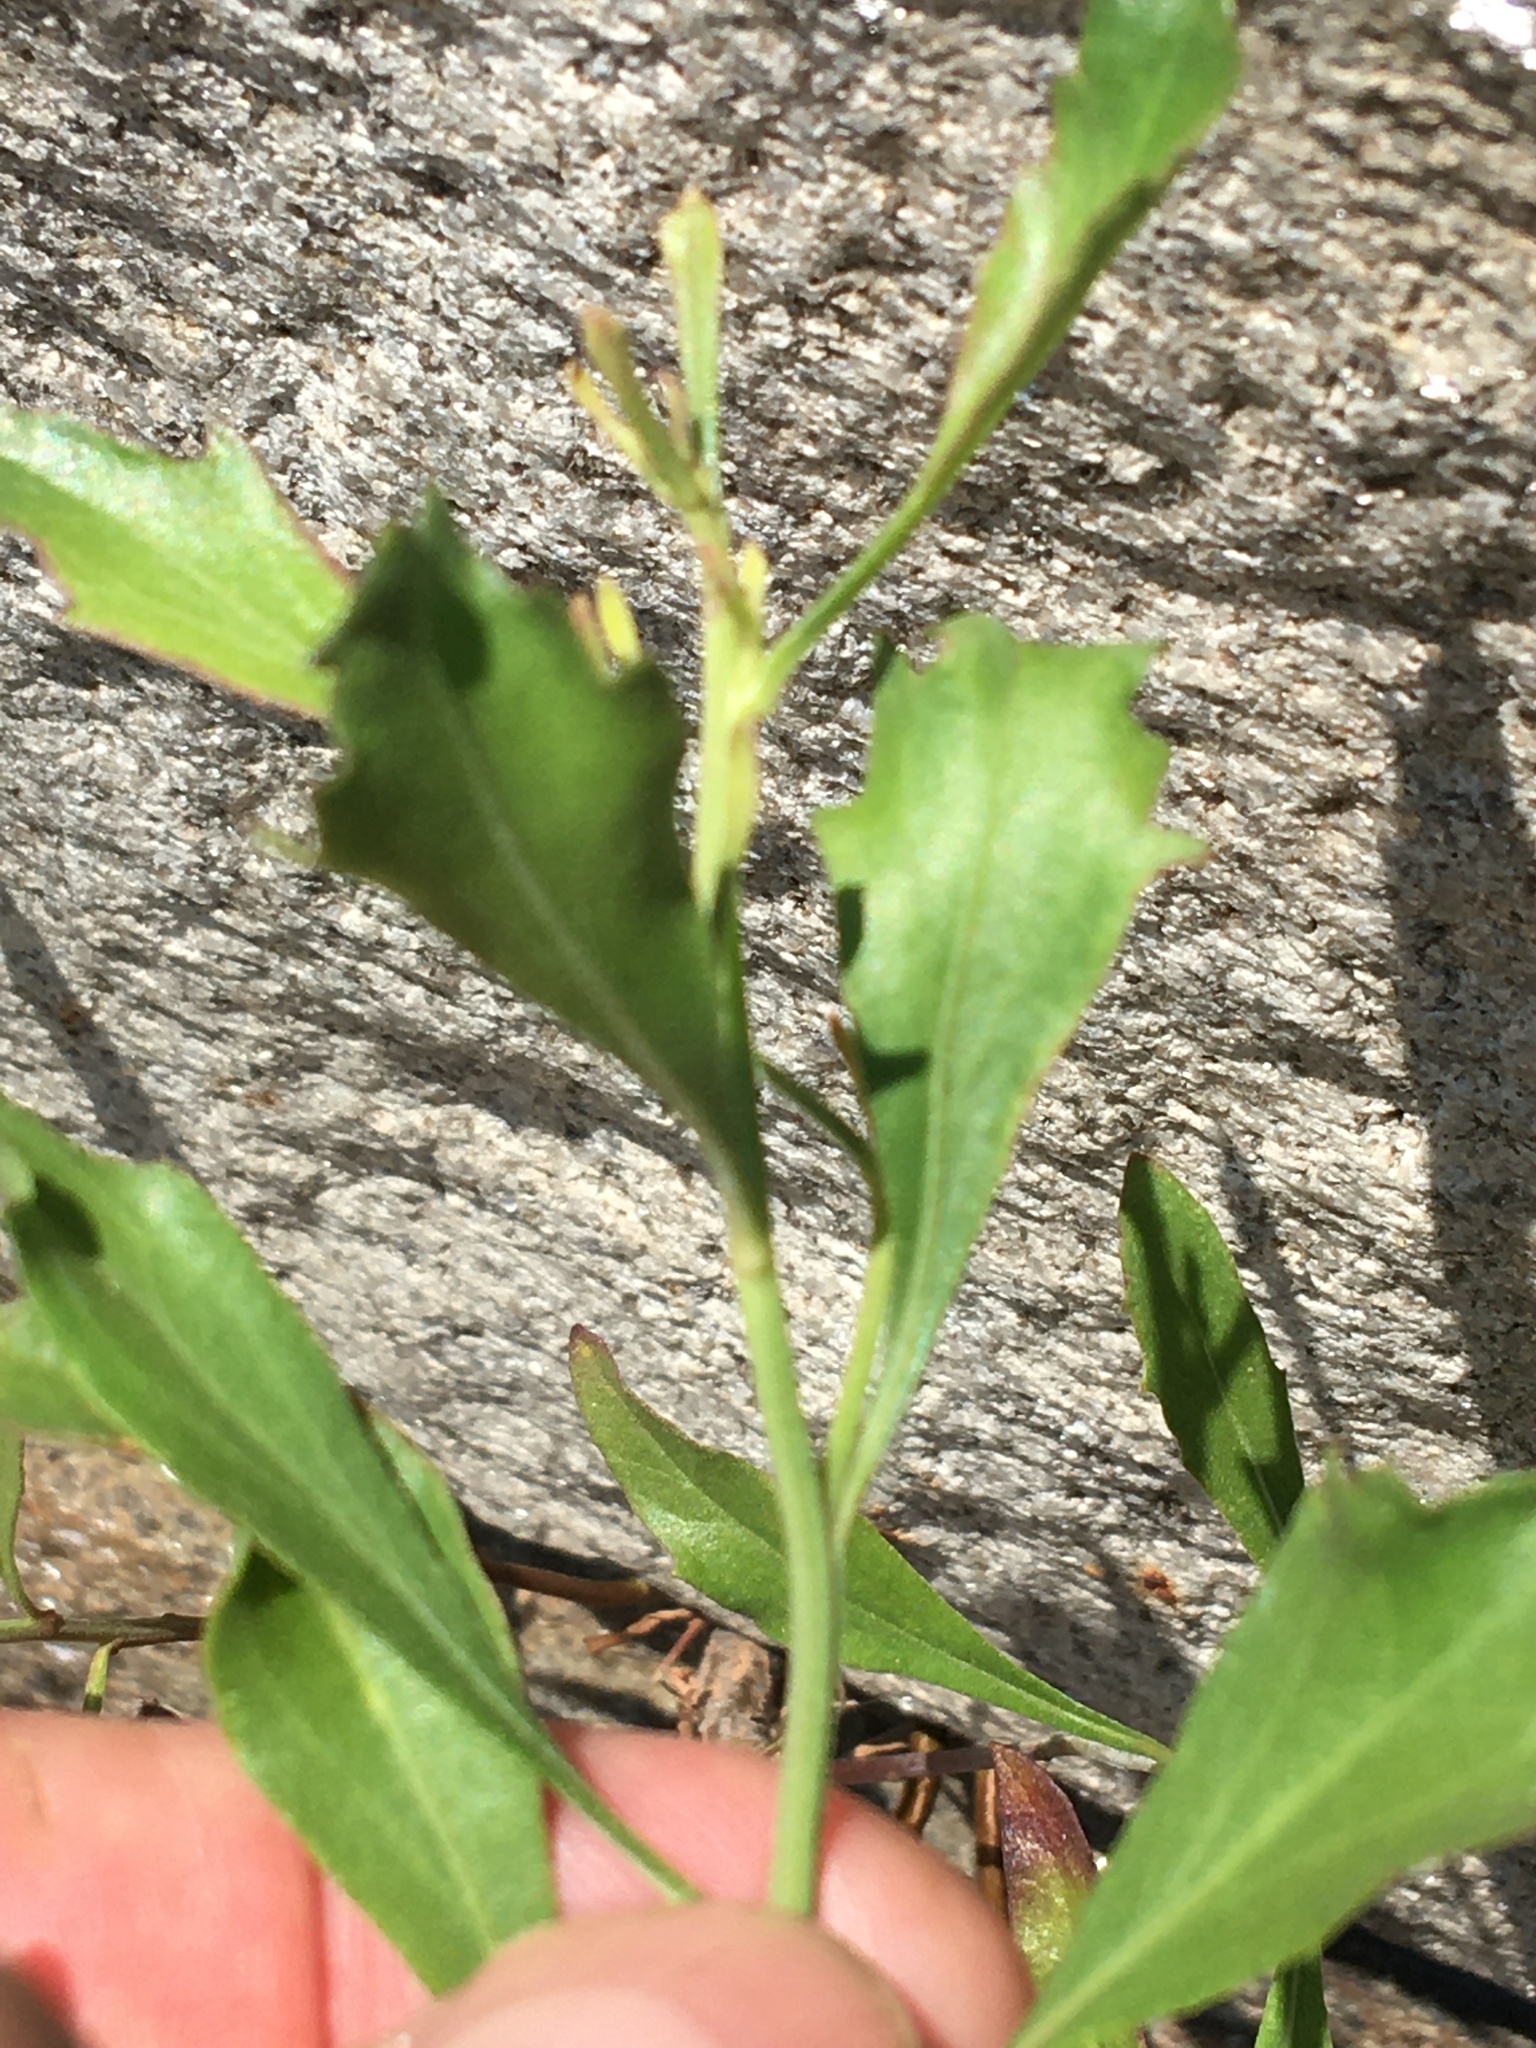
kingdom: Plantae
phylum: Tracheophyta
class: Magnoliopsida
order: Asterales
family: Asteraceae
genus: Baccharis
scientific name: Baccharis halimifolia
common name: Eastern baccharis
